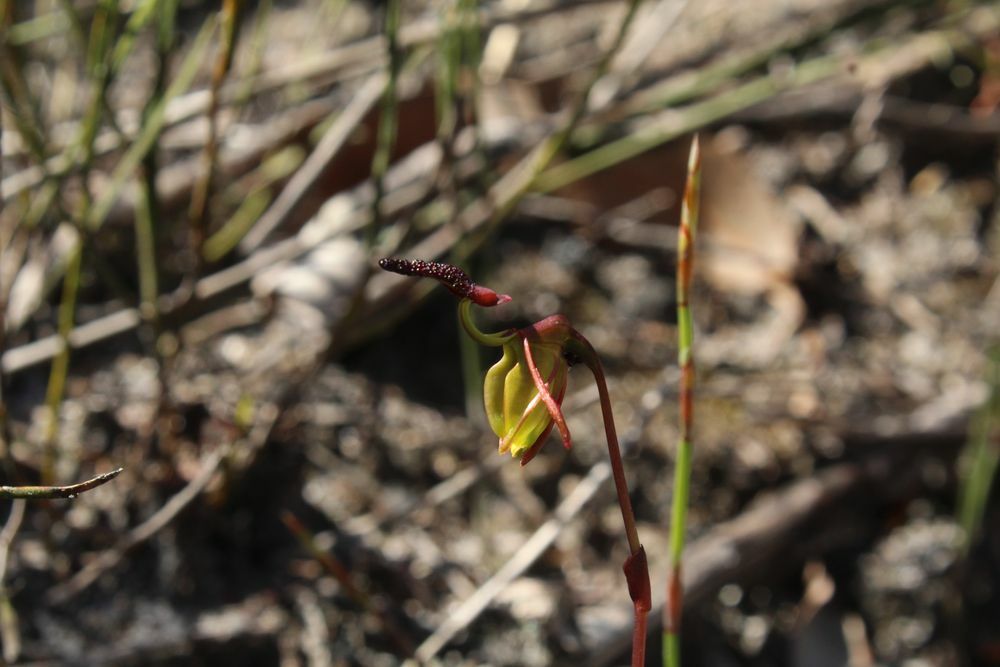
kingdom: Plantae
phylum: Tracheophyta
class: Liliopsida
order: Asparagales
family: Orchidaceae
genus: Caleana
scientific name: Caleana nigrita
